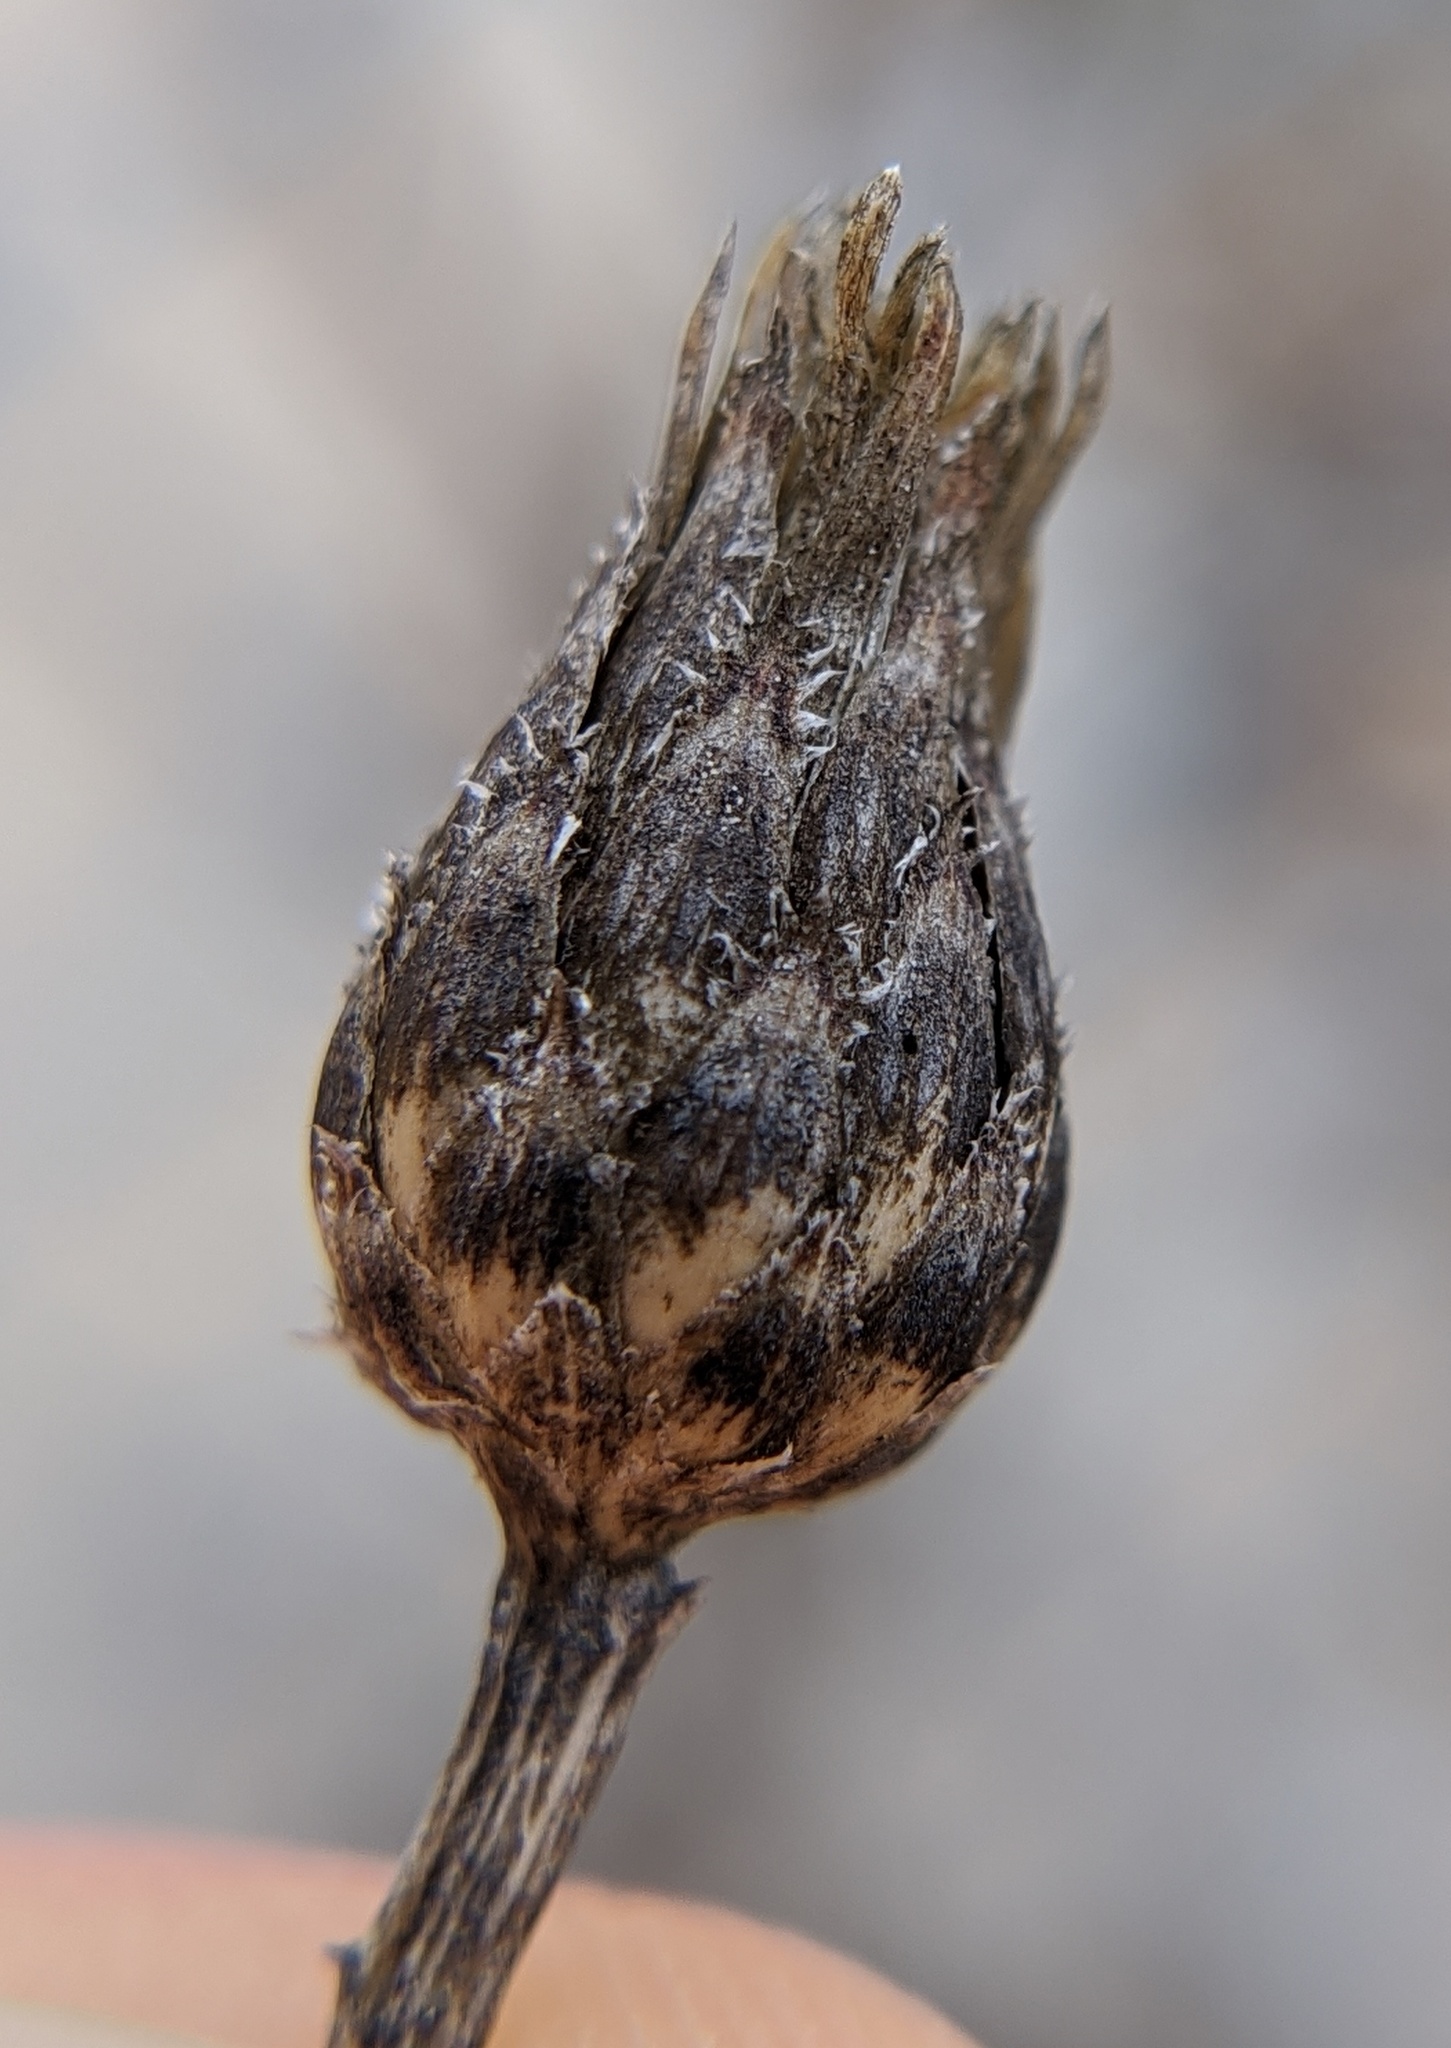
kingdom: Plantae
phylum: Tracheophyta
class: Magnoliopsida
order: Asterales
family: Asteraceae
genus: Centaurea
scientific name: Centaurea stoebe
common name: Spotted knapweed
